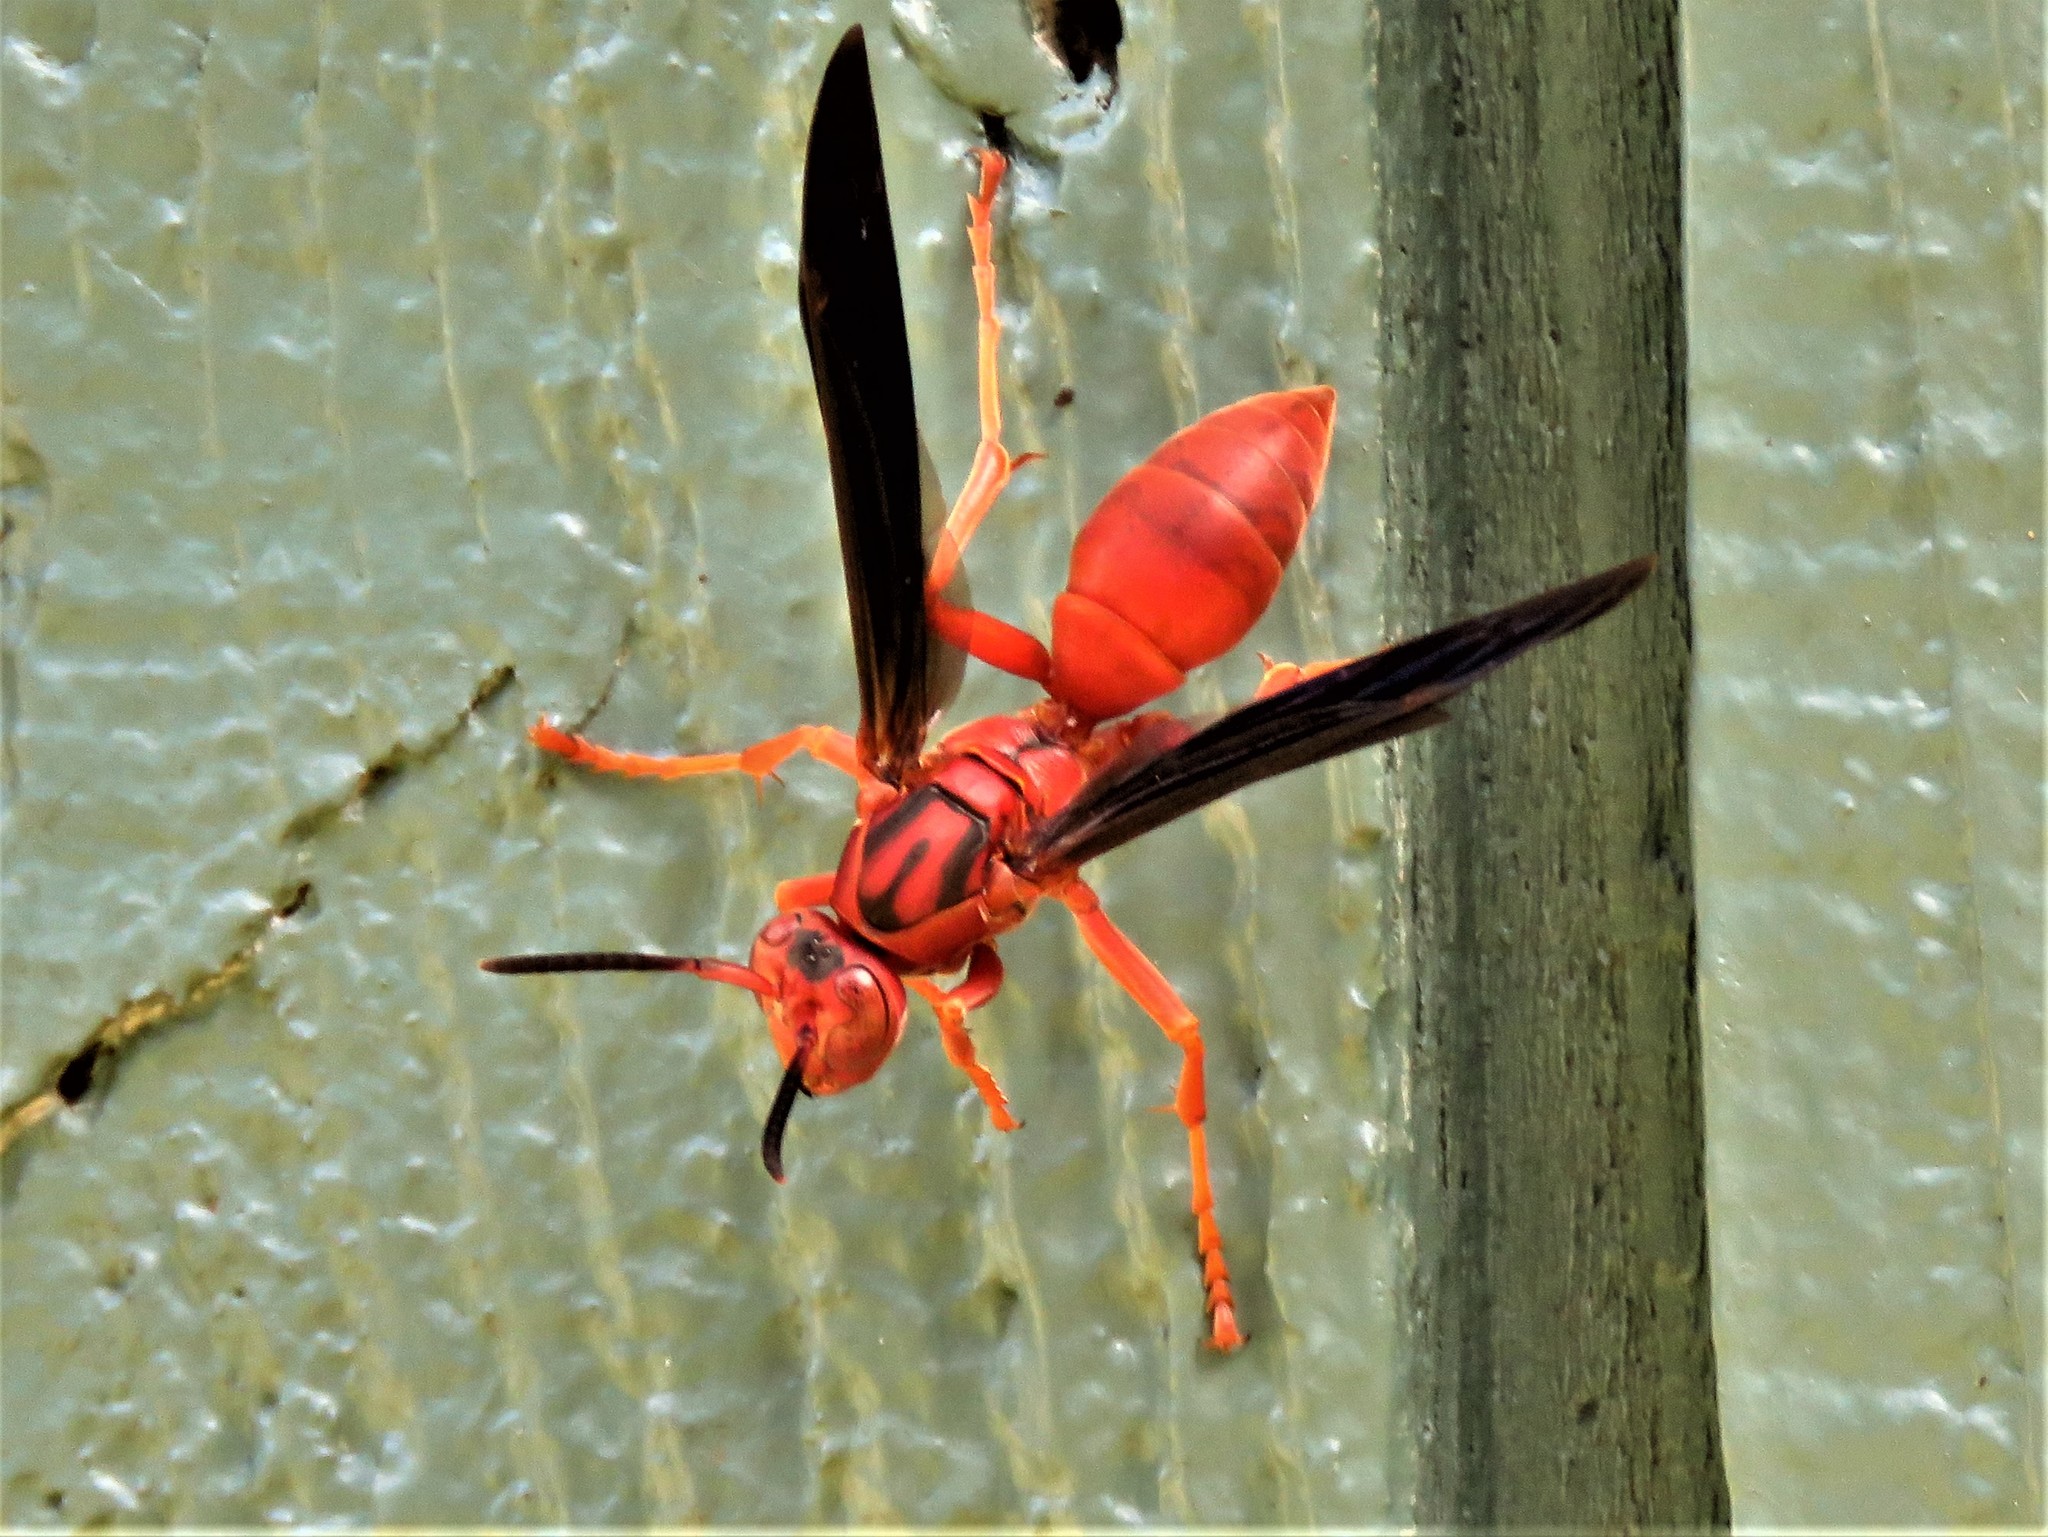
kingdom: Animalia
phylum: Arthropoda
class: Insecta
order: Hymenoptera
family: Eumenidae
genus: Polistes
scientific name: Polistes carolina
